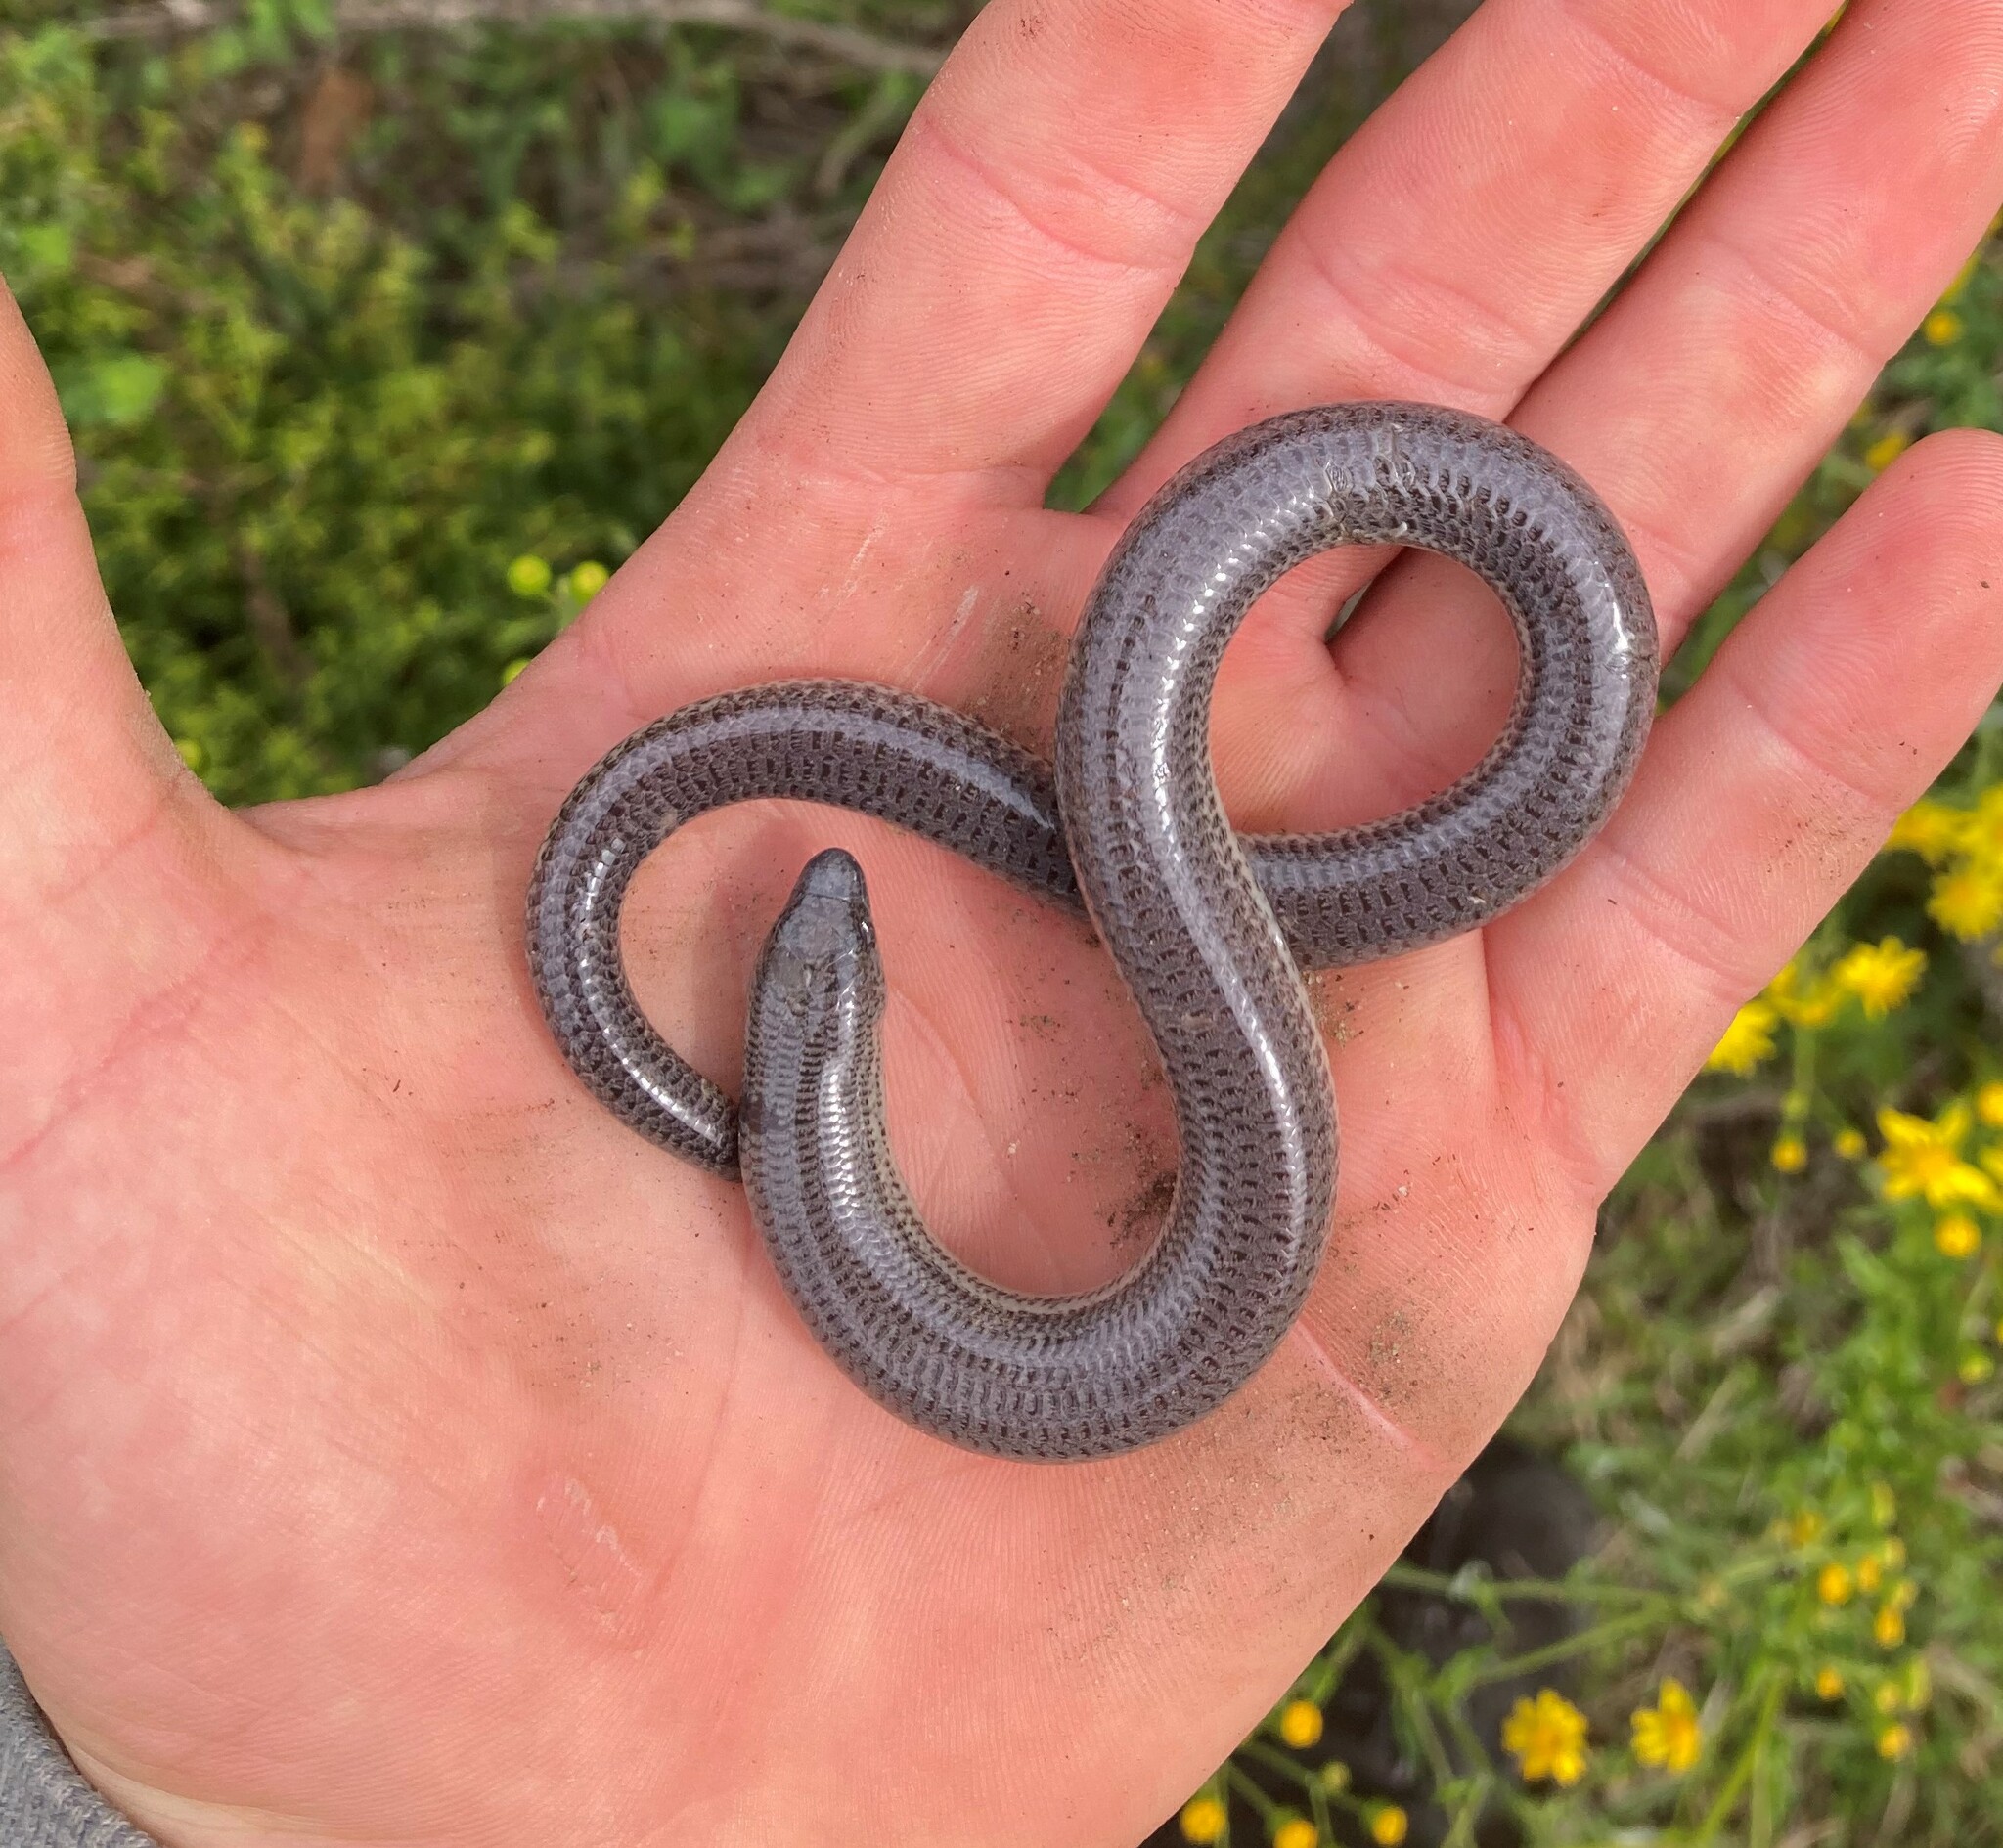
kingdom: Animalia
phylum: Chordata
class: Squamata
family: Scincidae
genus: Acontias
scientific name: Acontias meleagris
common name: Cape legless skink
